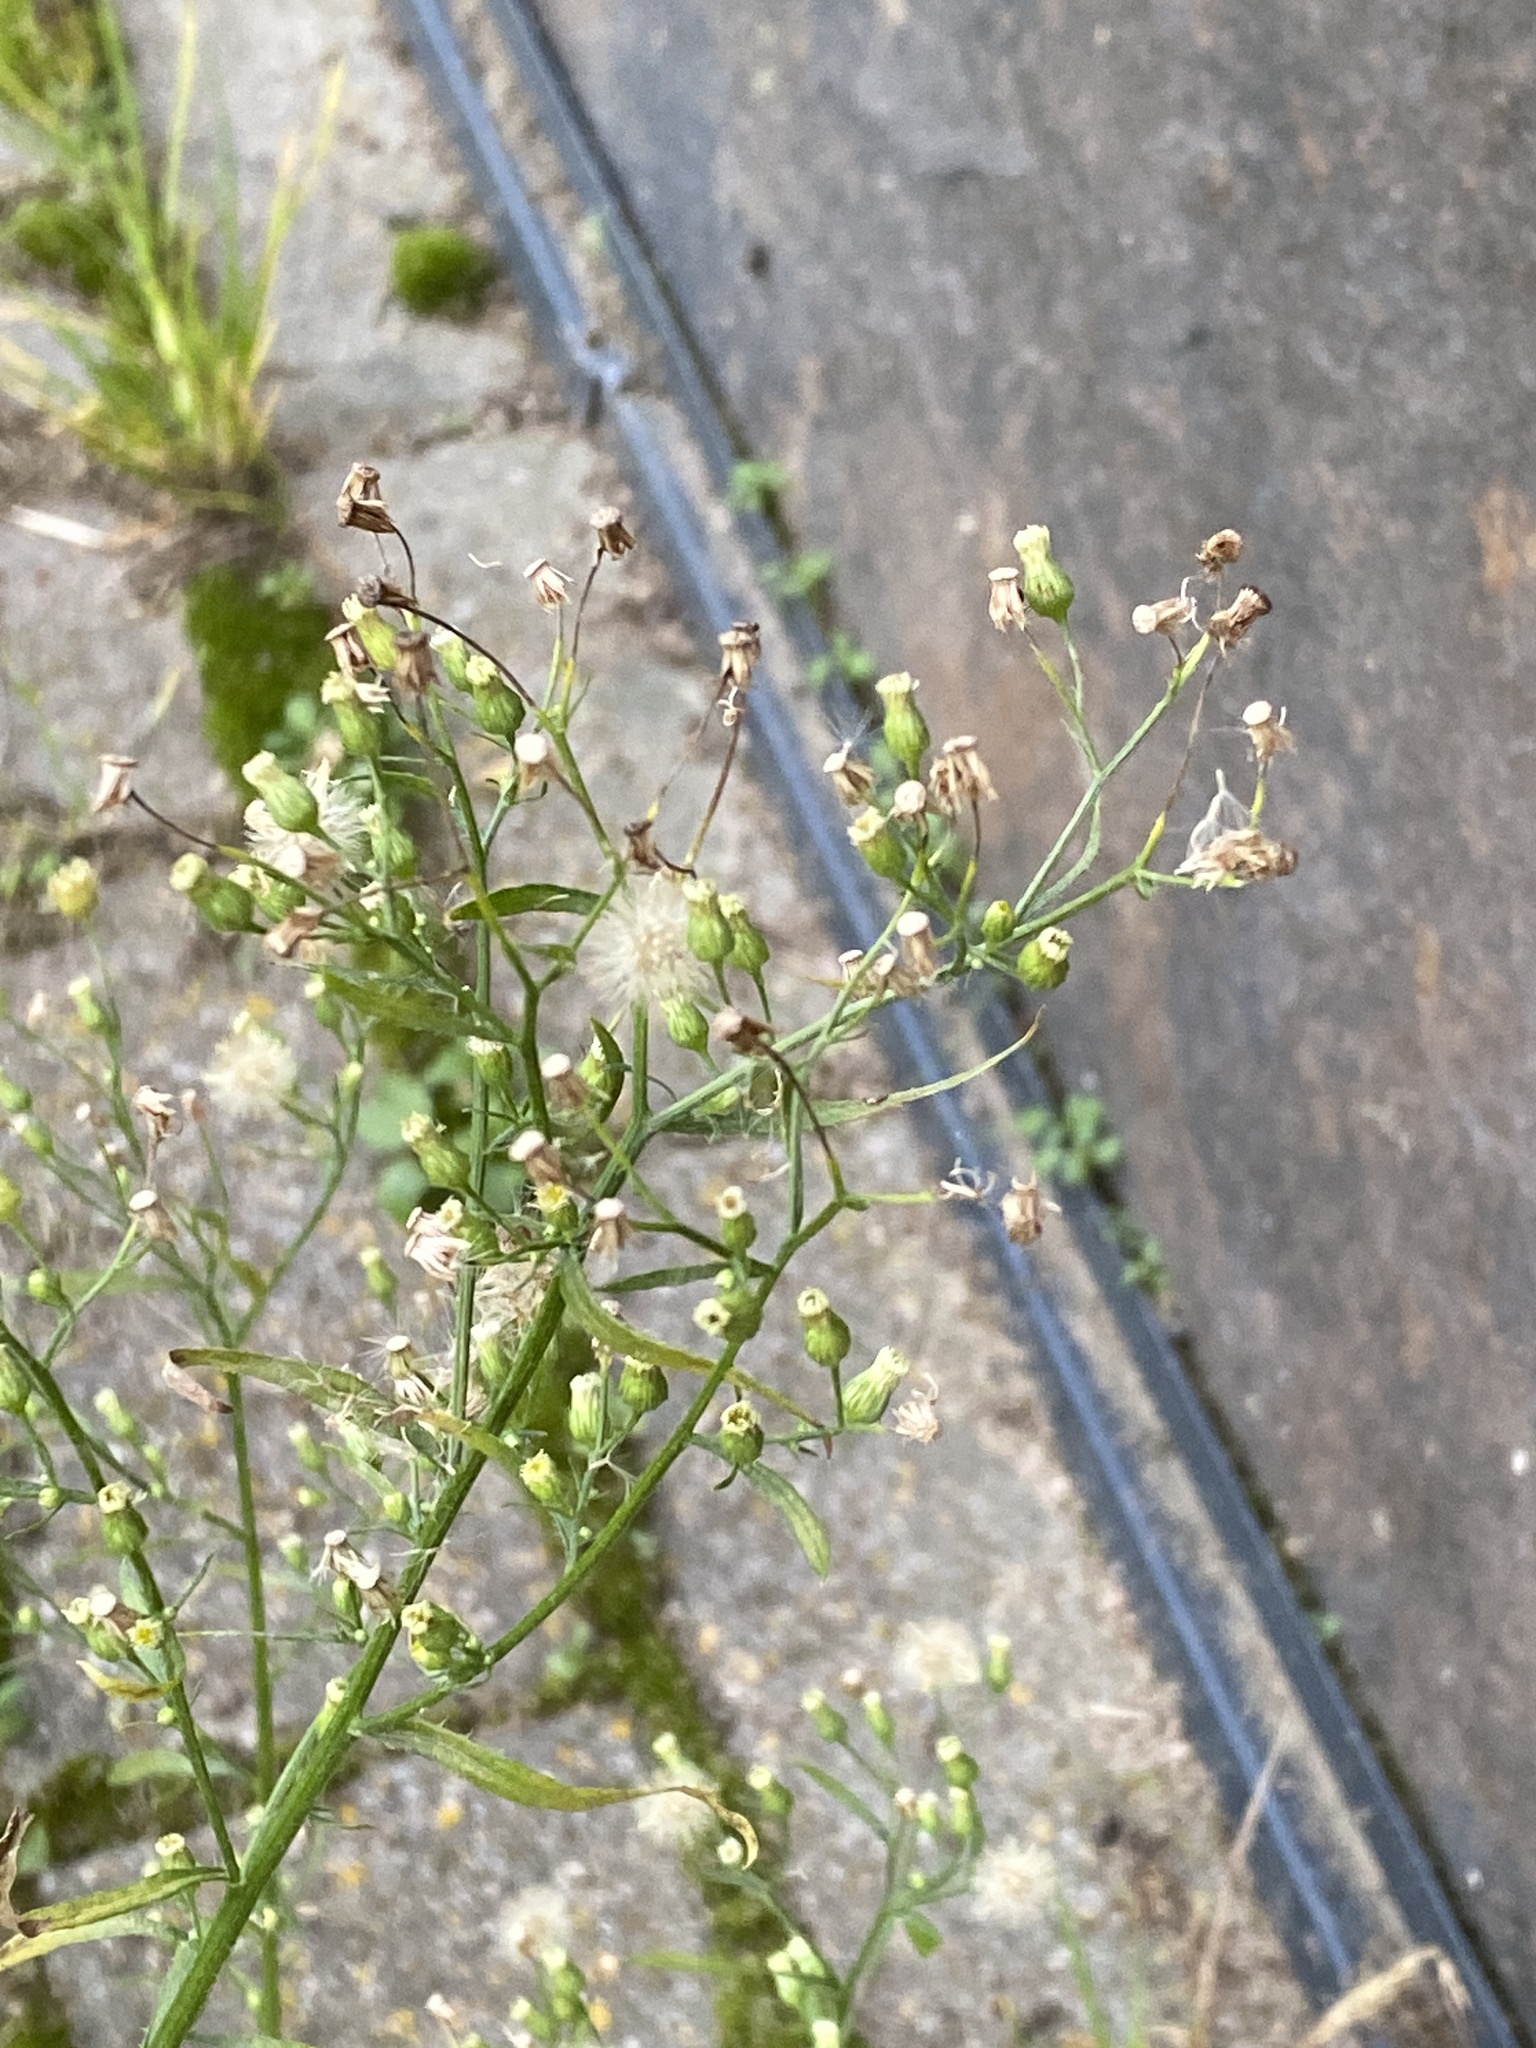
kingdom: Plantae
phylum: Tracheophyta
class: Magnoliopsida
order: Asterales
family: Asteraceae
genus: Erigeron
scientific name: Erigeron canadensis
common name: Canadian fleabane
